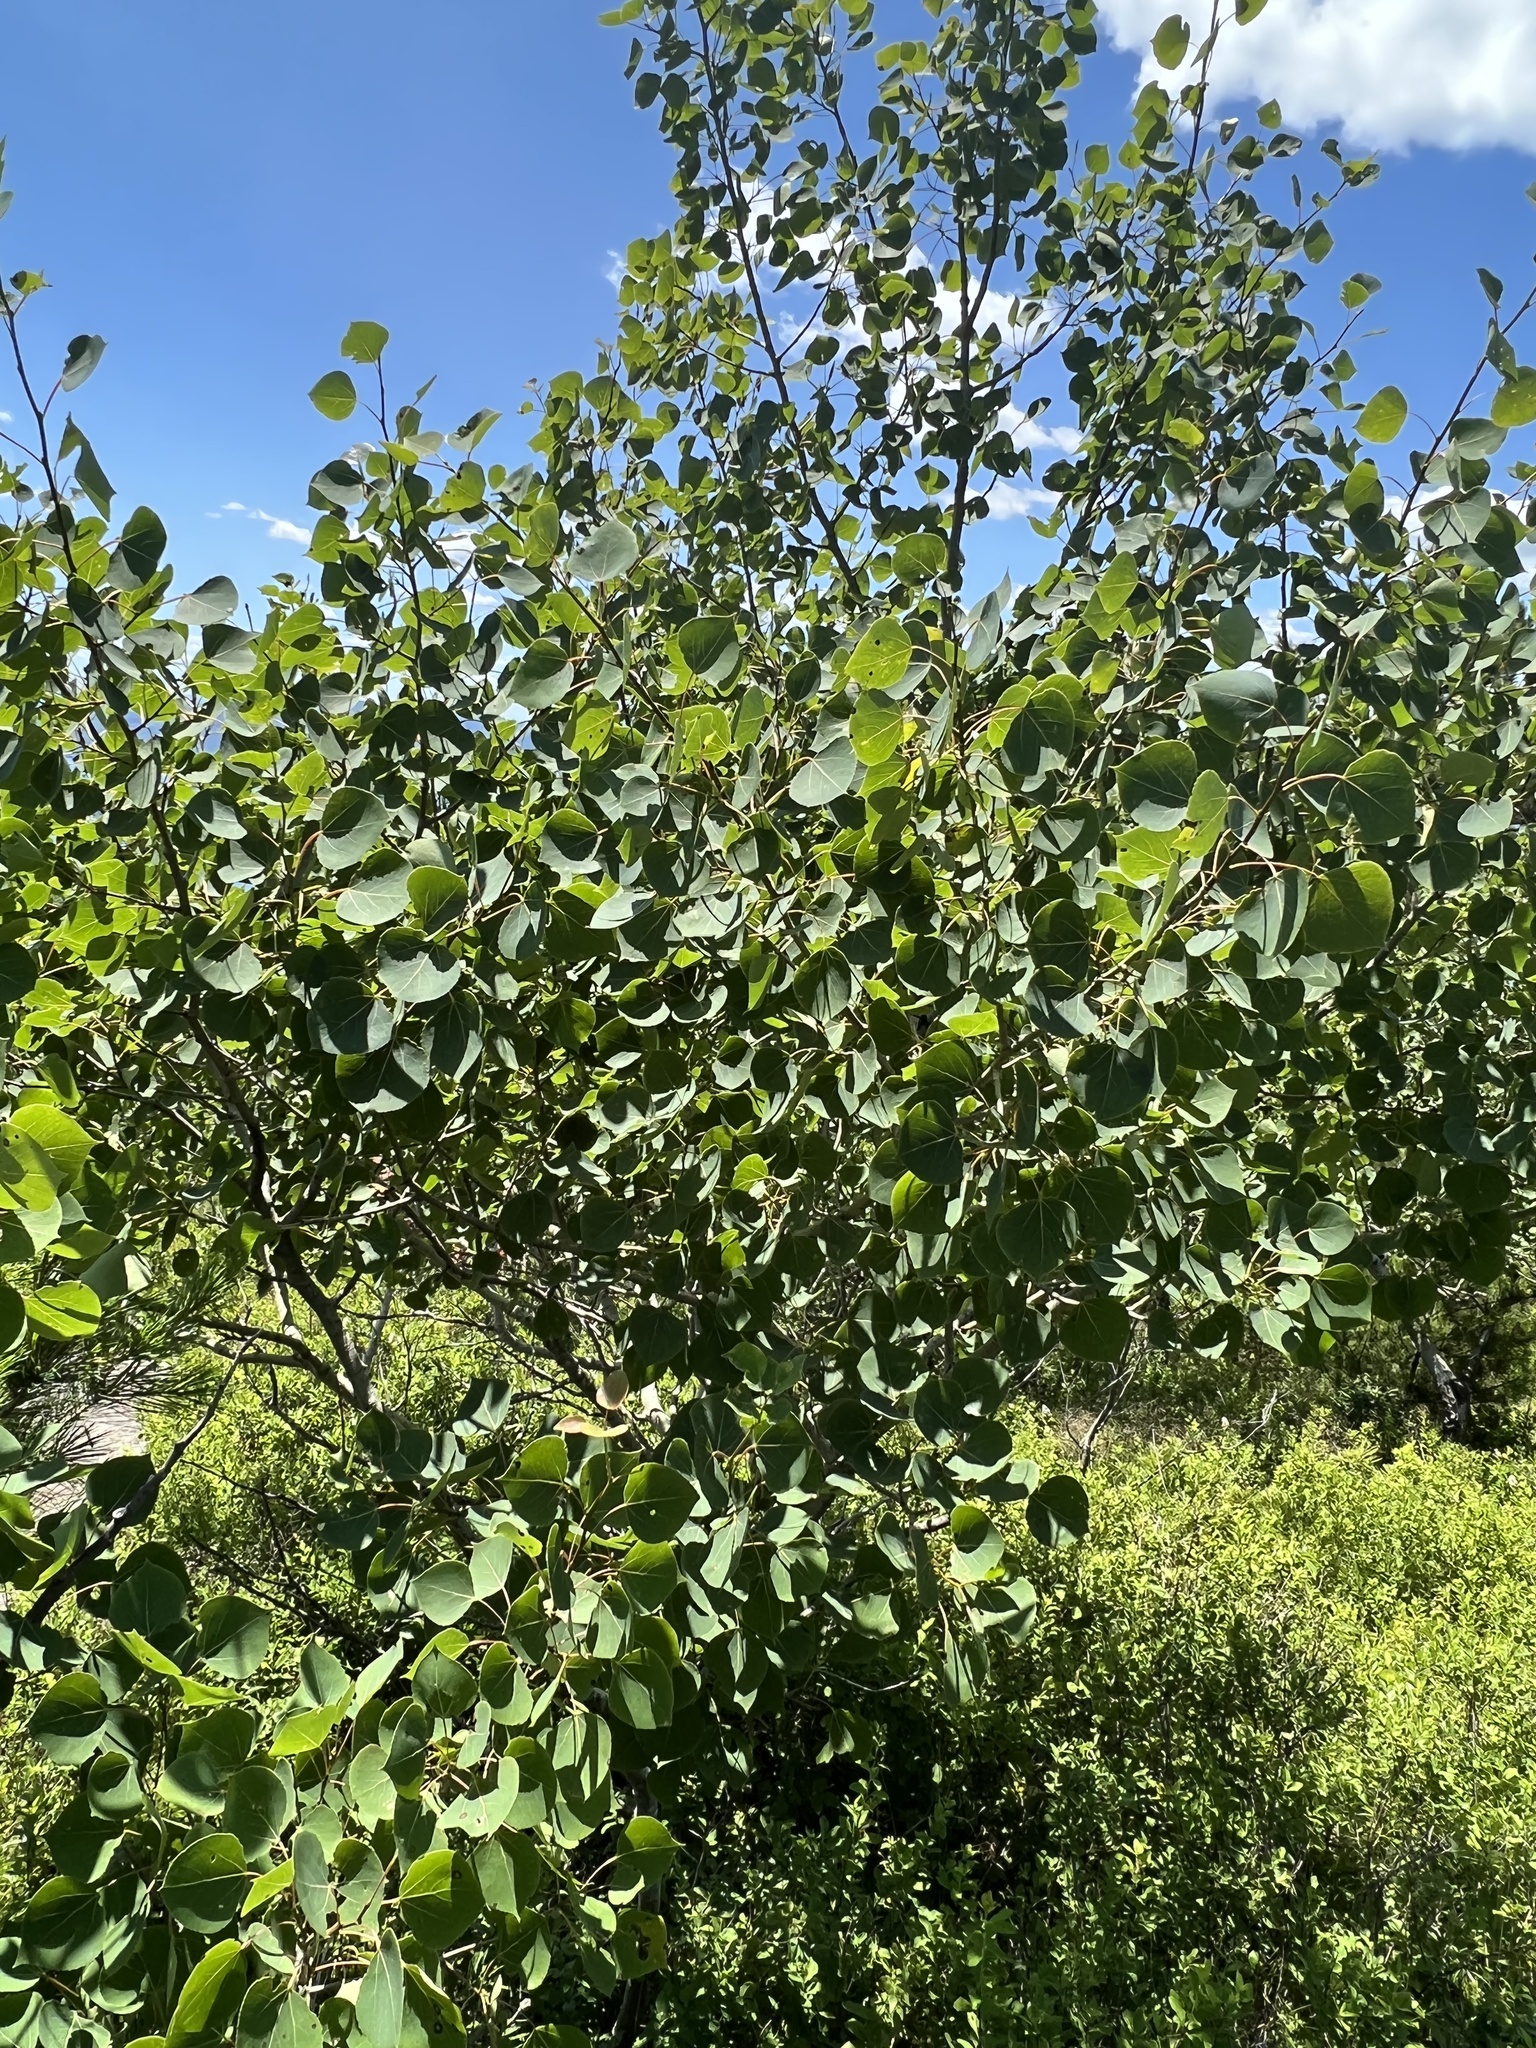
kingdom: Plantae
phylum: Tracheophyta
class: Magnoliopsida
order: Malpighiales
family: Salicaceae
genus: Populus
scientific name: Populus tremuloides
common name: Quaking aspen
